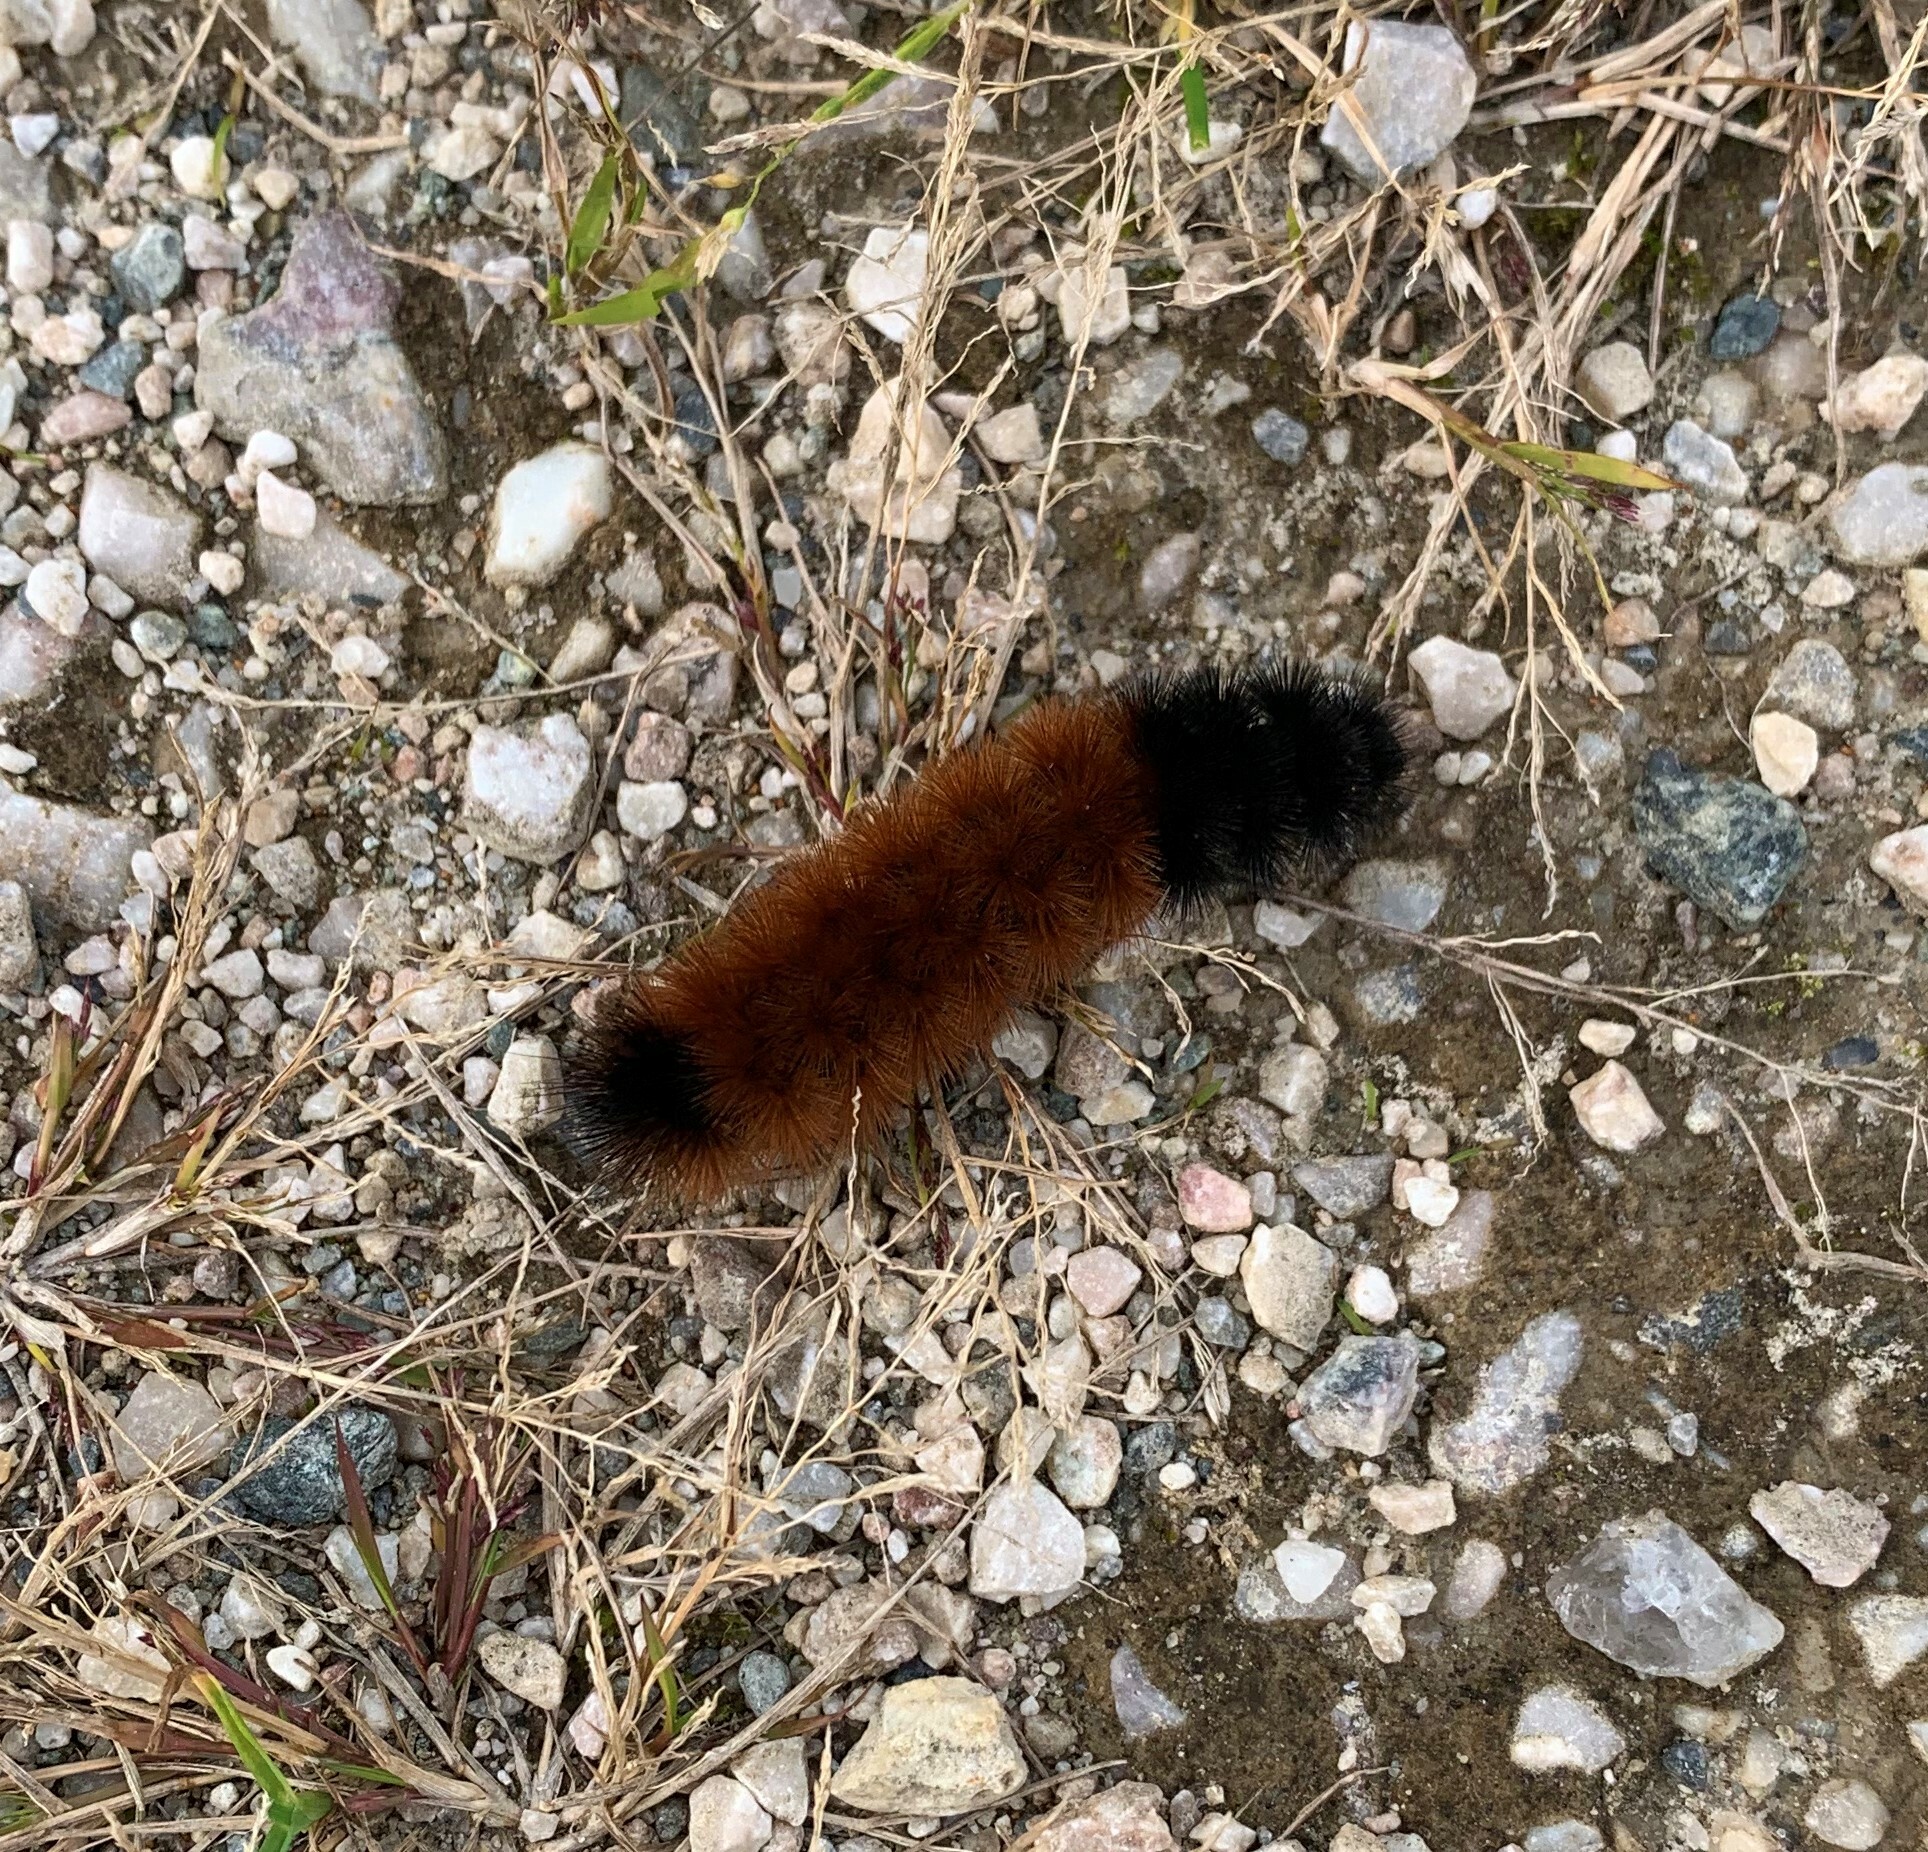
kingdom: Animalia
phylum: Arthropoda
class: Insecta
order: Lepidoptera
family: Erebidae
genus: Pyrrharctia
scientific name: Pyrrharctia isabella
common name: Isabella tiger moth
